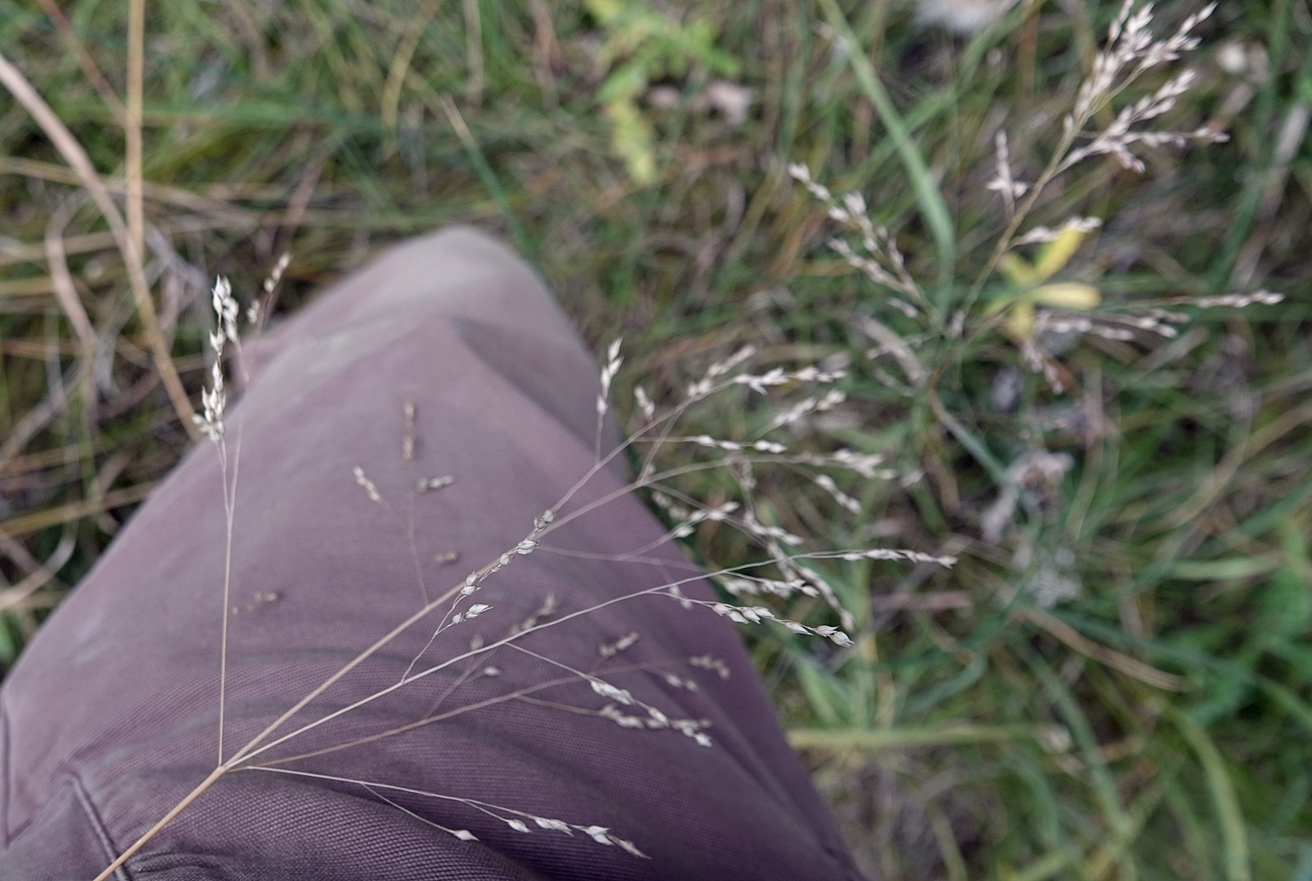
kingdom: Plantae
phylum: Tracheophyta
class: Liliopsida
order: Poales
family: Poaceae
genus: Panicum
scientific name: Panicum virgatum
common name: Switchgrass
